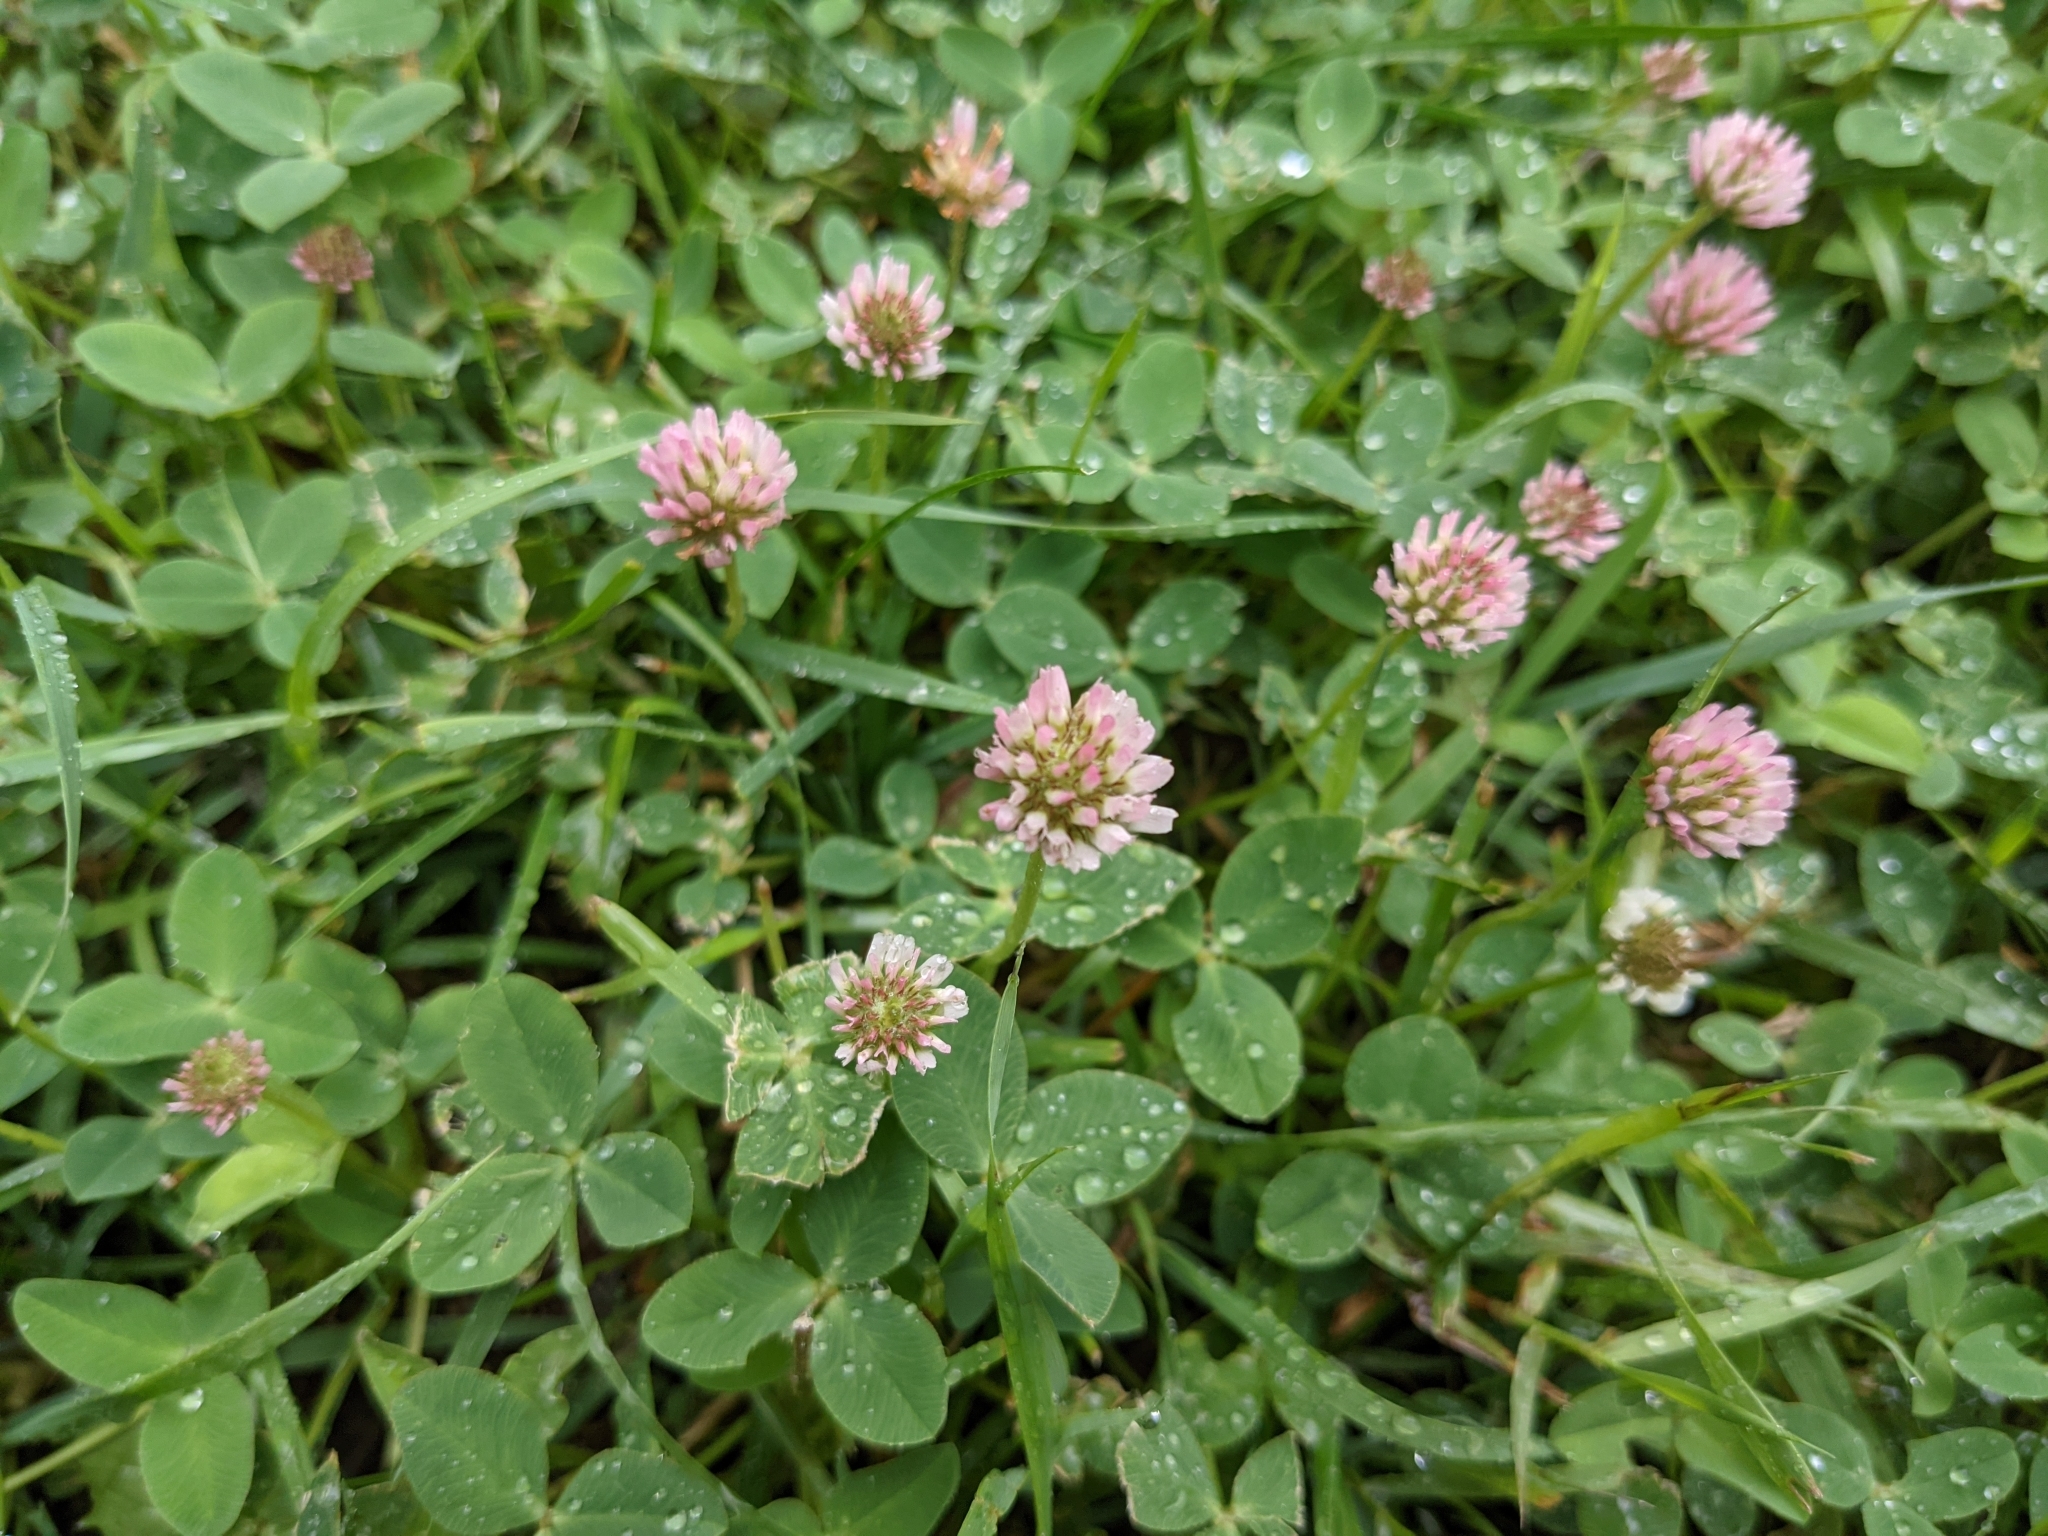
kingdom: Plantae
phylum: Tracheophyta
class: Magnoliopsida
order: Fabales
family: Fabaceae
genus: Trifolium
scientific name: Trifolium repens
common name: White clover
